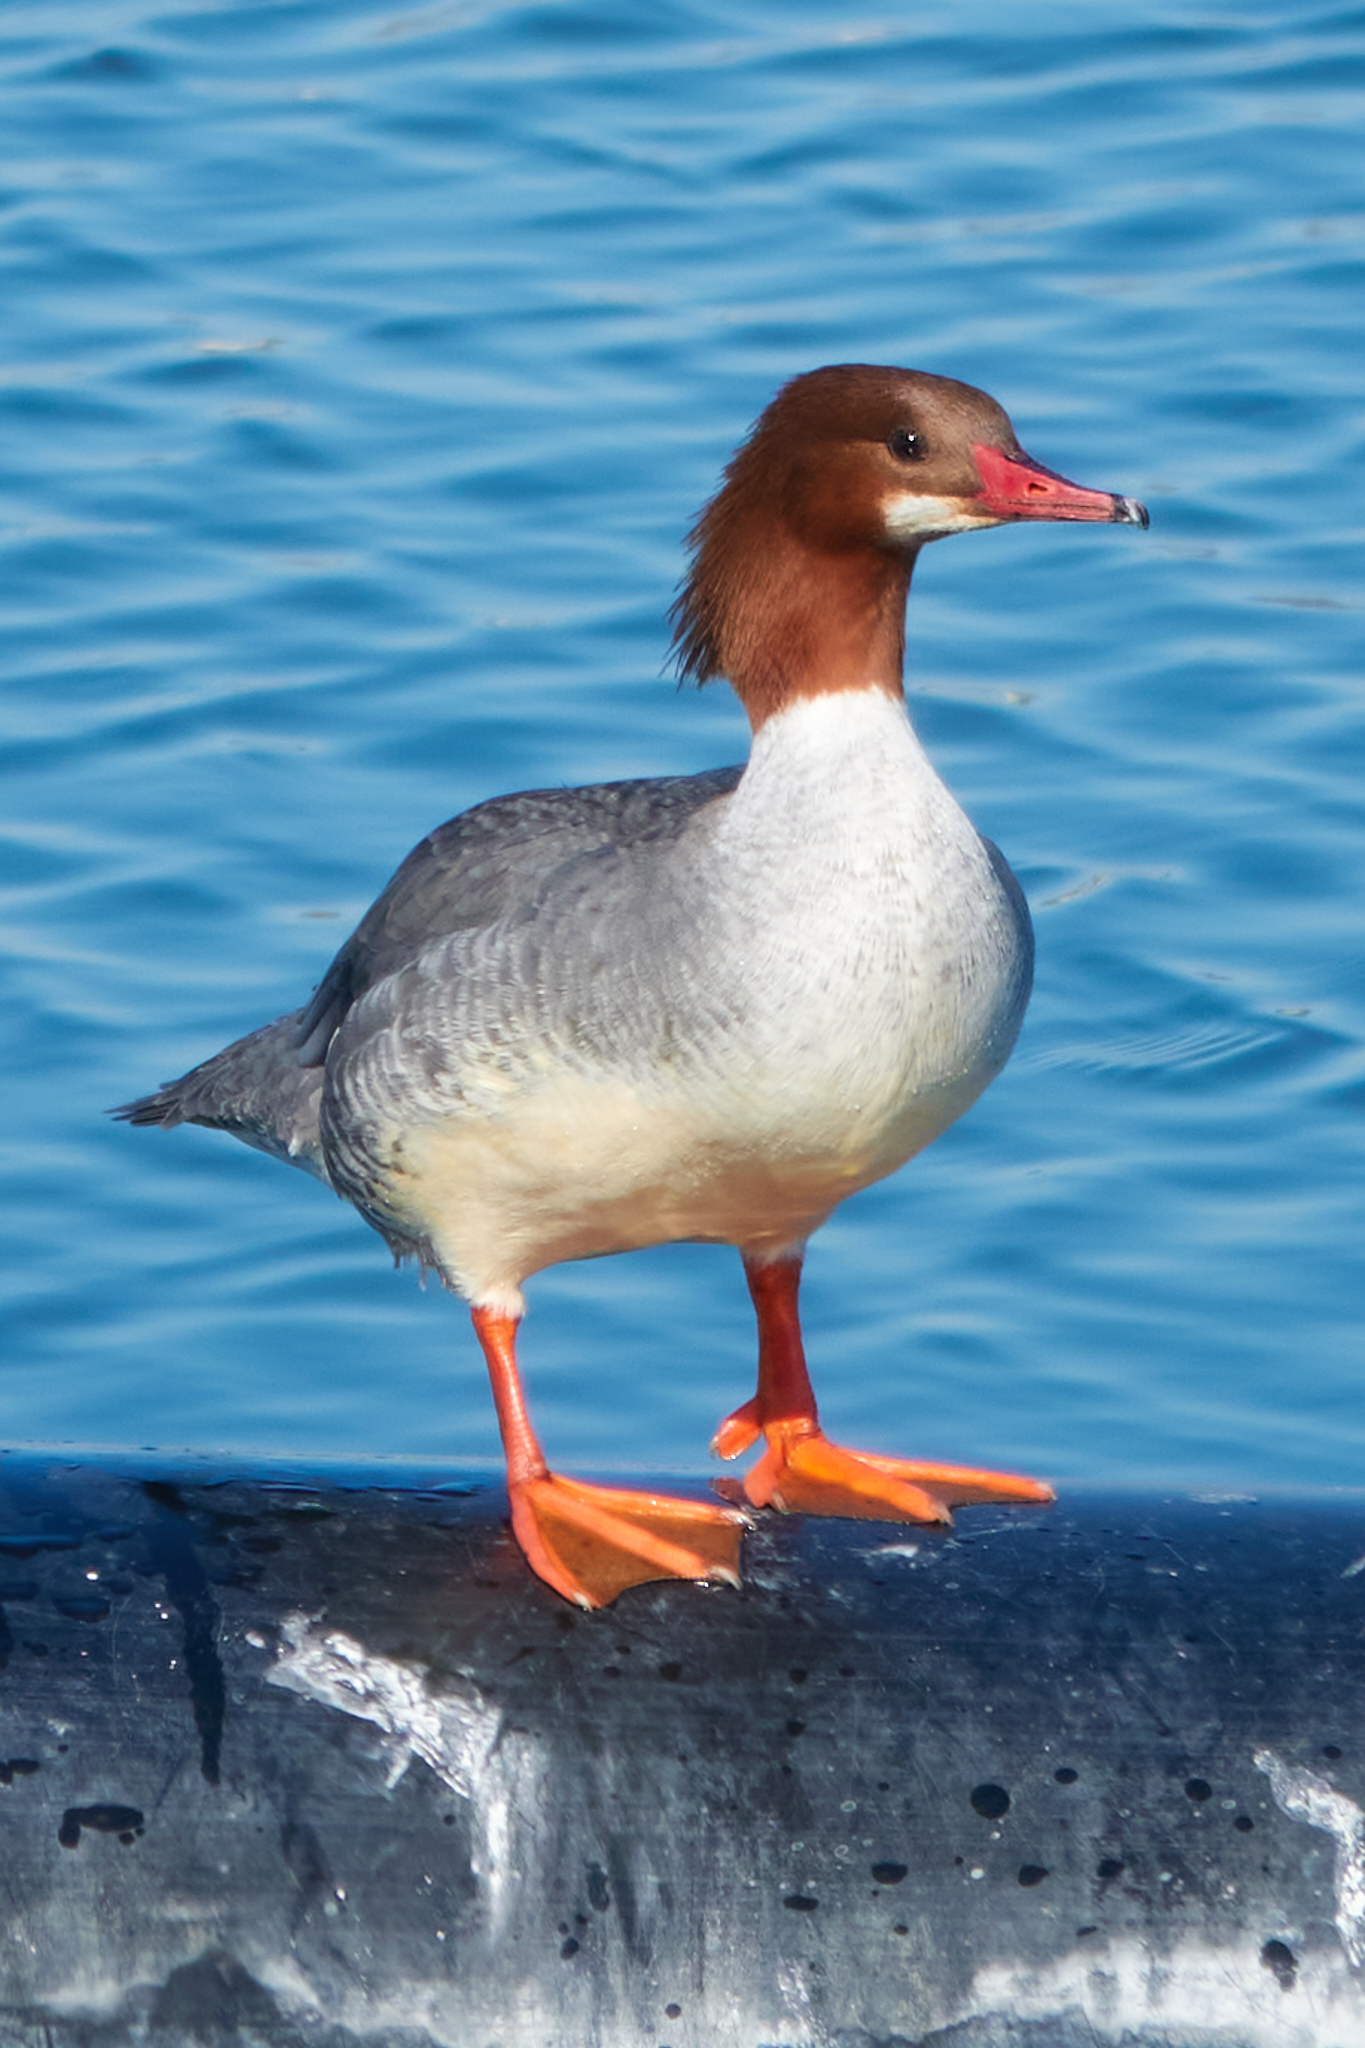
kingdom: Animalia
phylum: Chordata
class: Aves
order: Anseriformes
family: Anatidae
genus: Mergus
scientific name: Mergus merganser
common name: Common merganser
